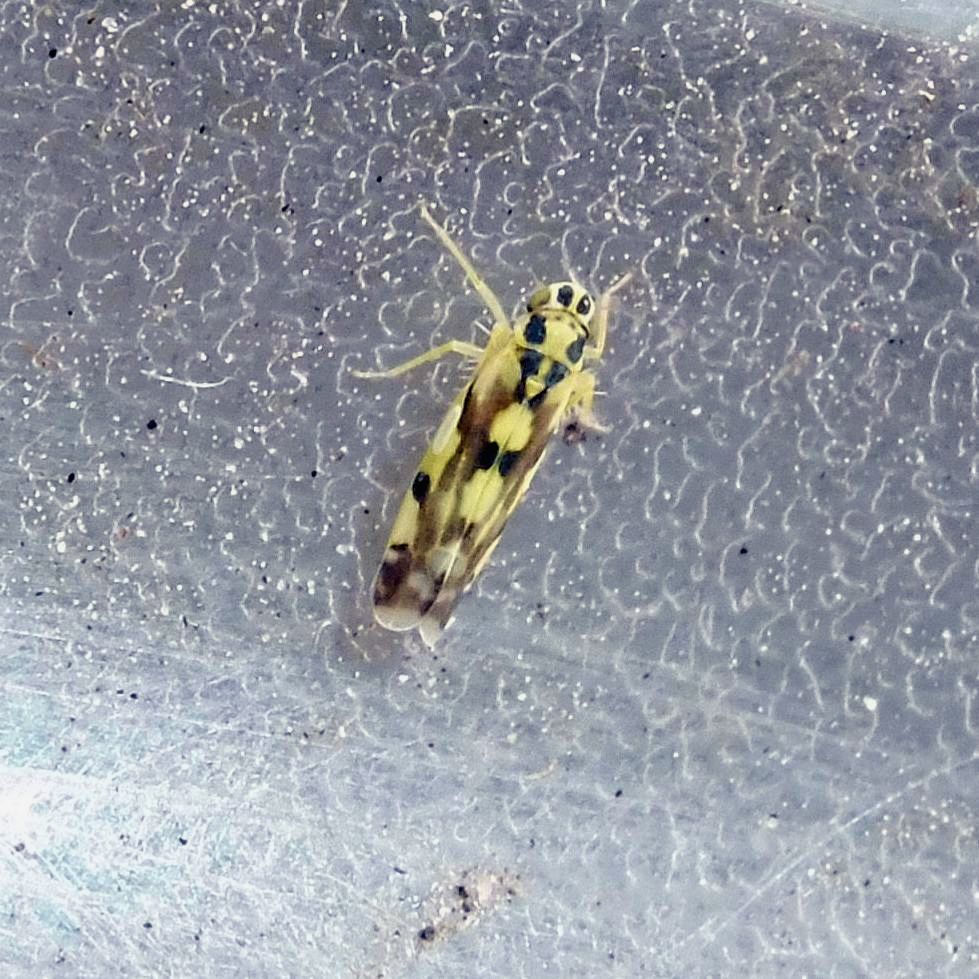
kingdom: Animalia
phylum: Arthropoda
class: Insecta
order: Hemiptera
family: Cicadellidae
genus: Eupteryx
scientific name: Eupteryx aurata
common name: Leafhopper
